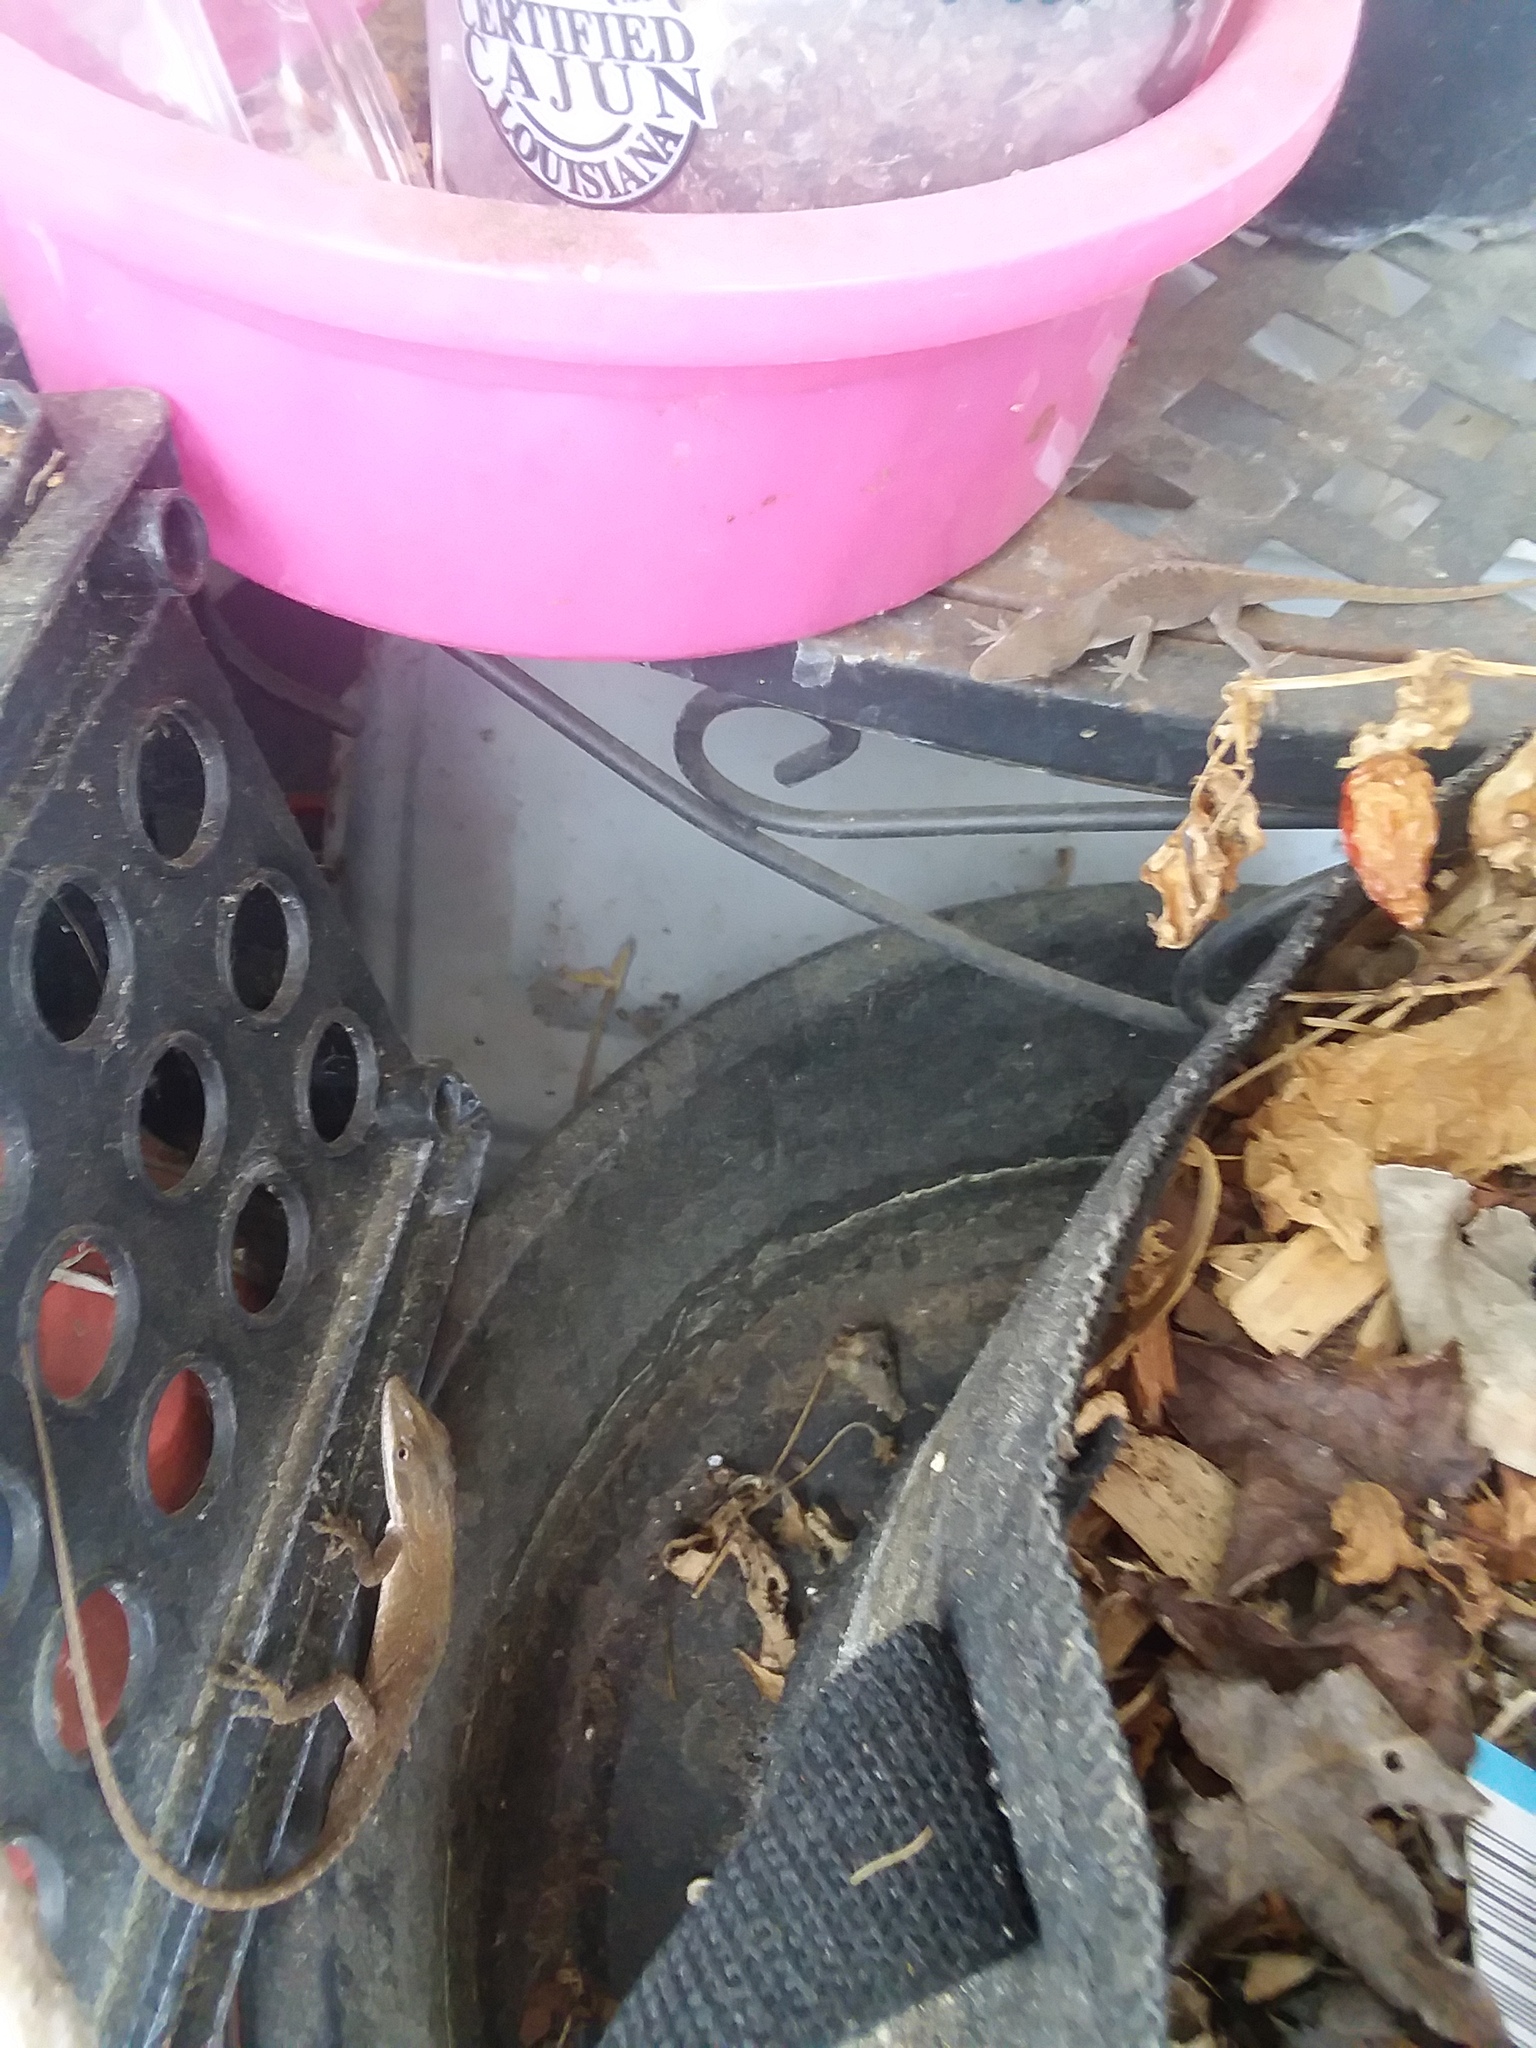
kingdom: Animalia
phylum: Chordata
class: Squamata
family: Dactyloidae
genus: Anolis
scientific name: Anolis carolinensis
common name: Green anole
